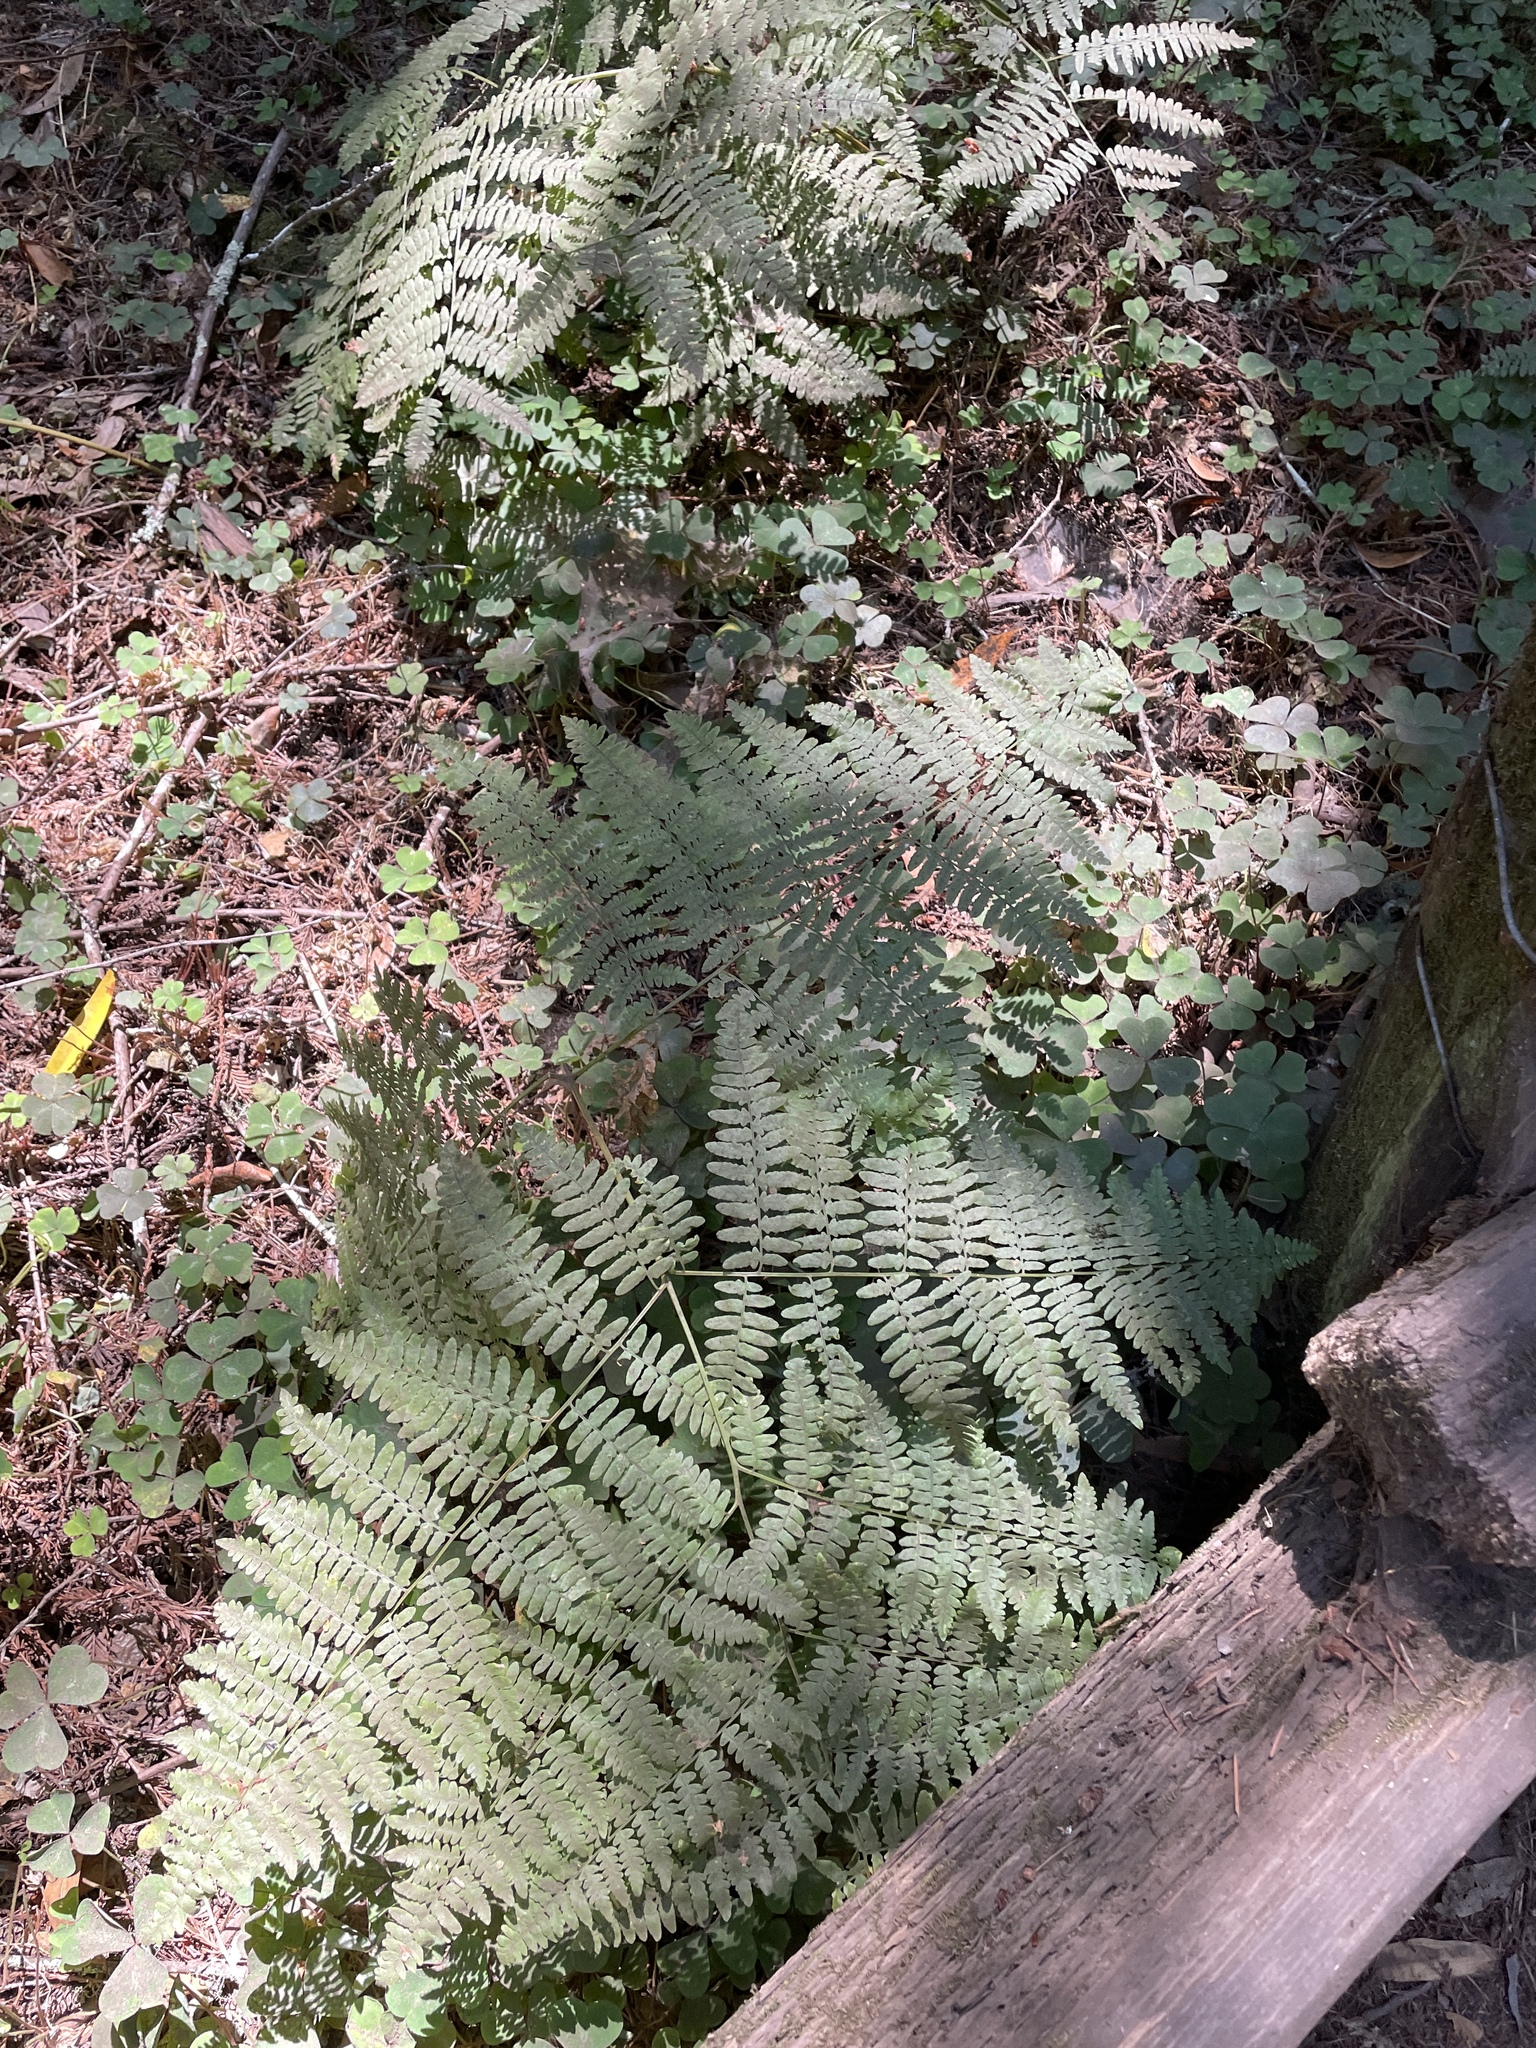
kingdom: Plantae
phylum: Tracheophyta
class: Polypodiopsida
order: Polypodiales
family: Dennstaedtiaceae
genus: Pteridium
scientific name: Pteridium aquilinum
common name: Bracken
